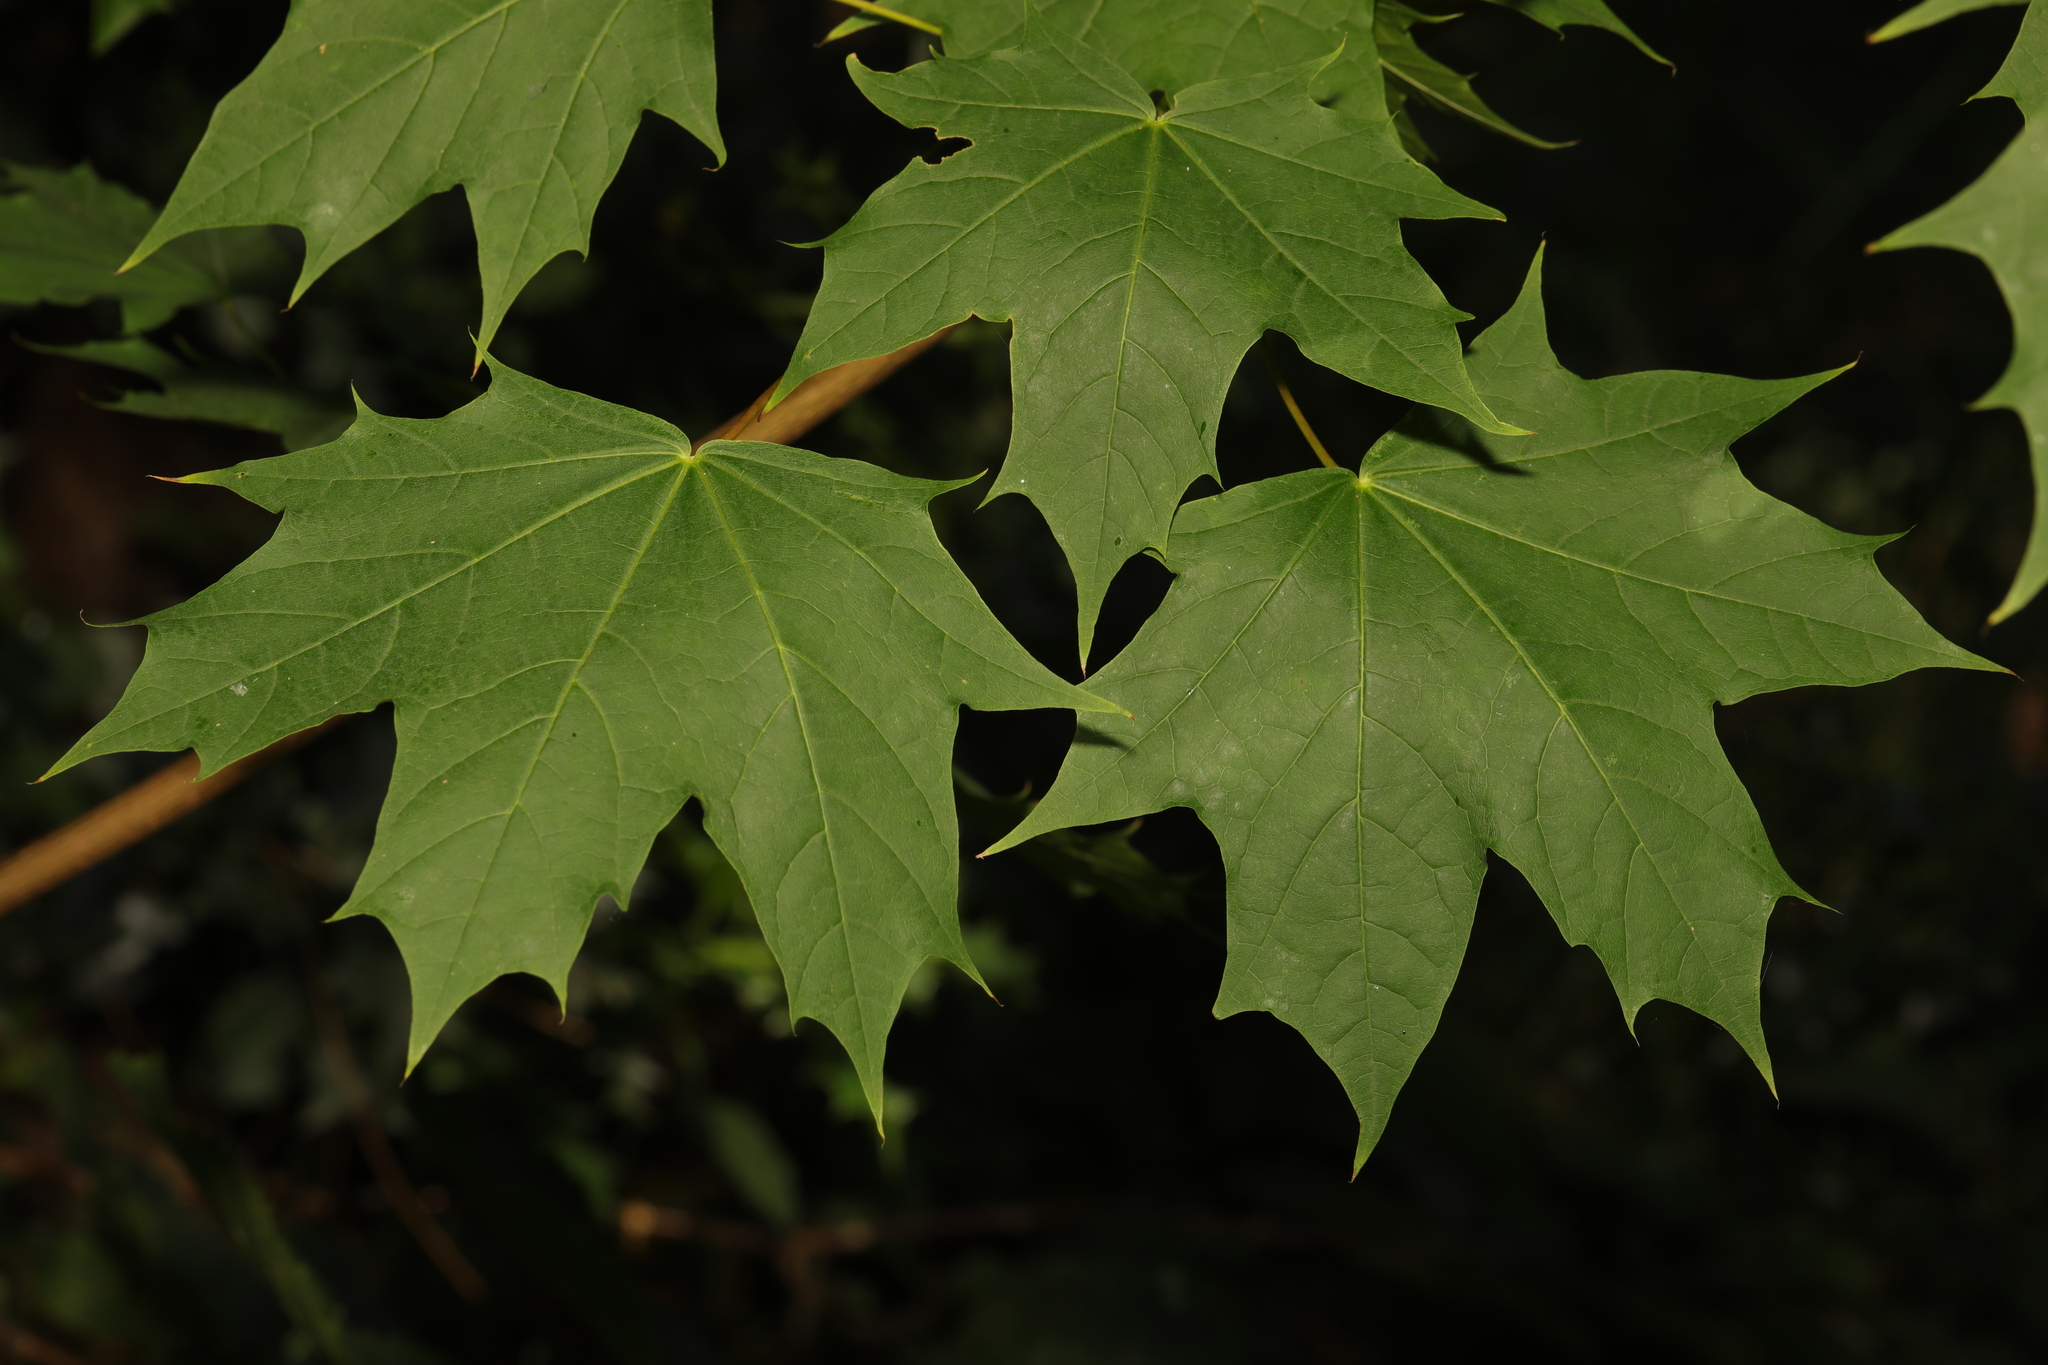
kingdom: Plantae
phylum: Tracheophyta
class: Magnoliopsida
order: Sapindales
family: Sapindaceae
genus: Acer
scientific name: Acer platanoides
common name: Norway maple
